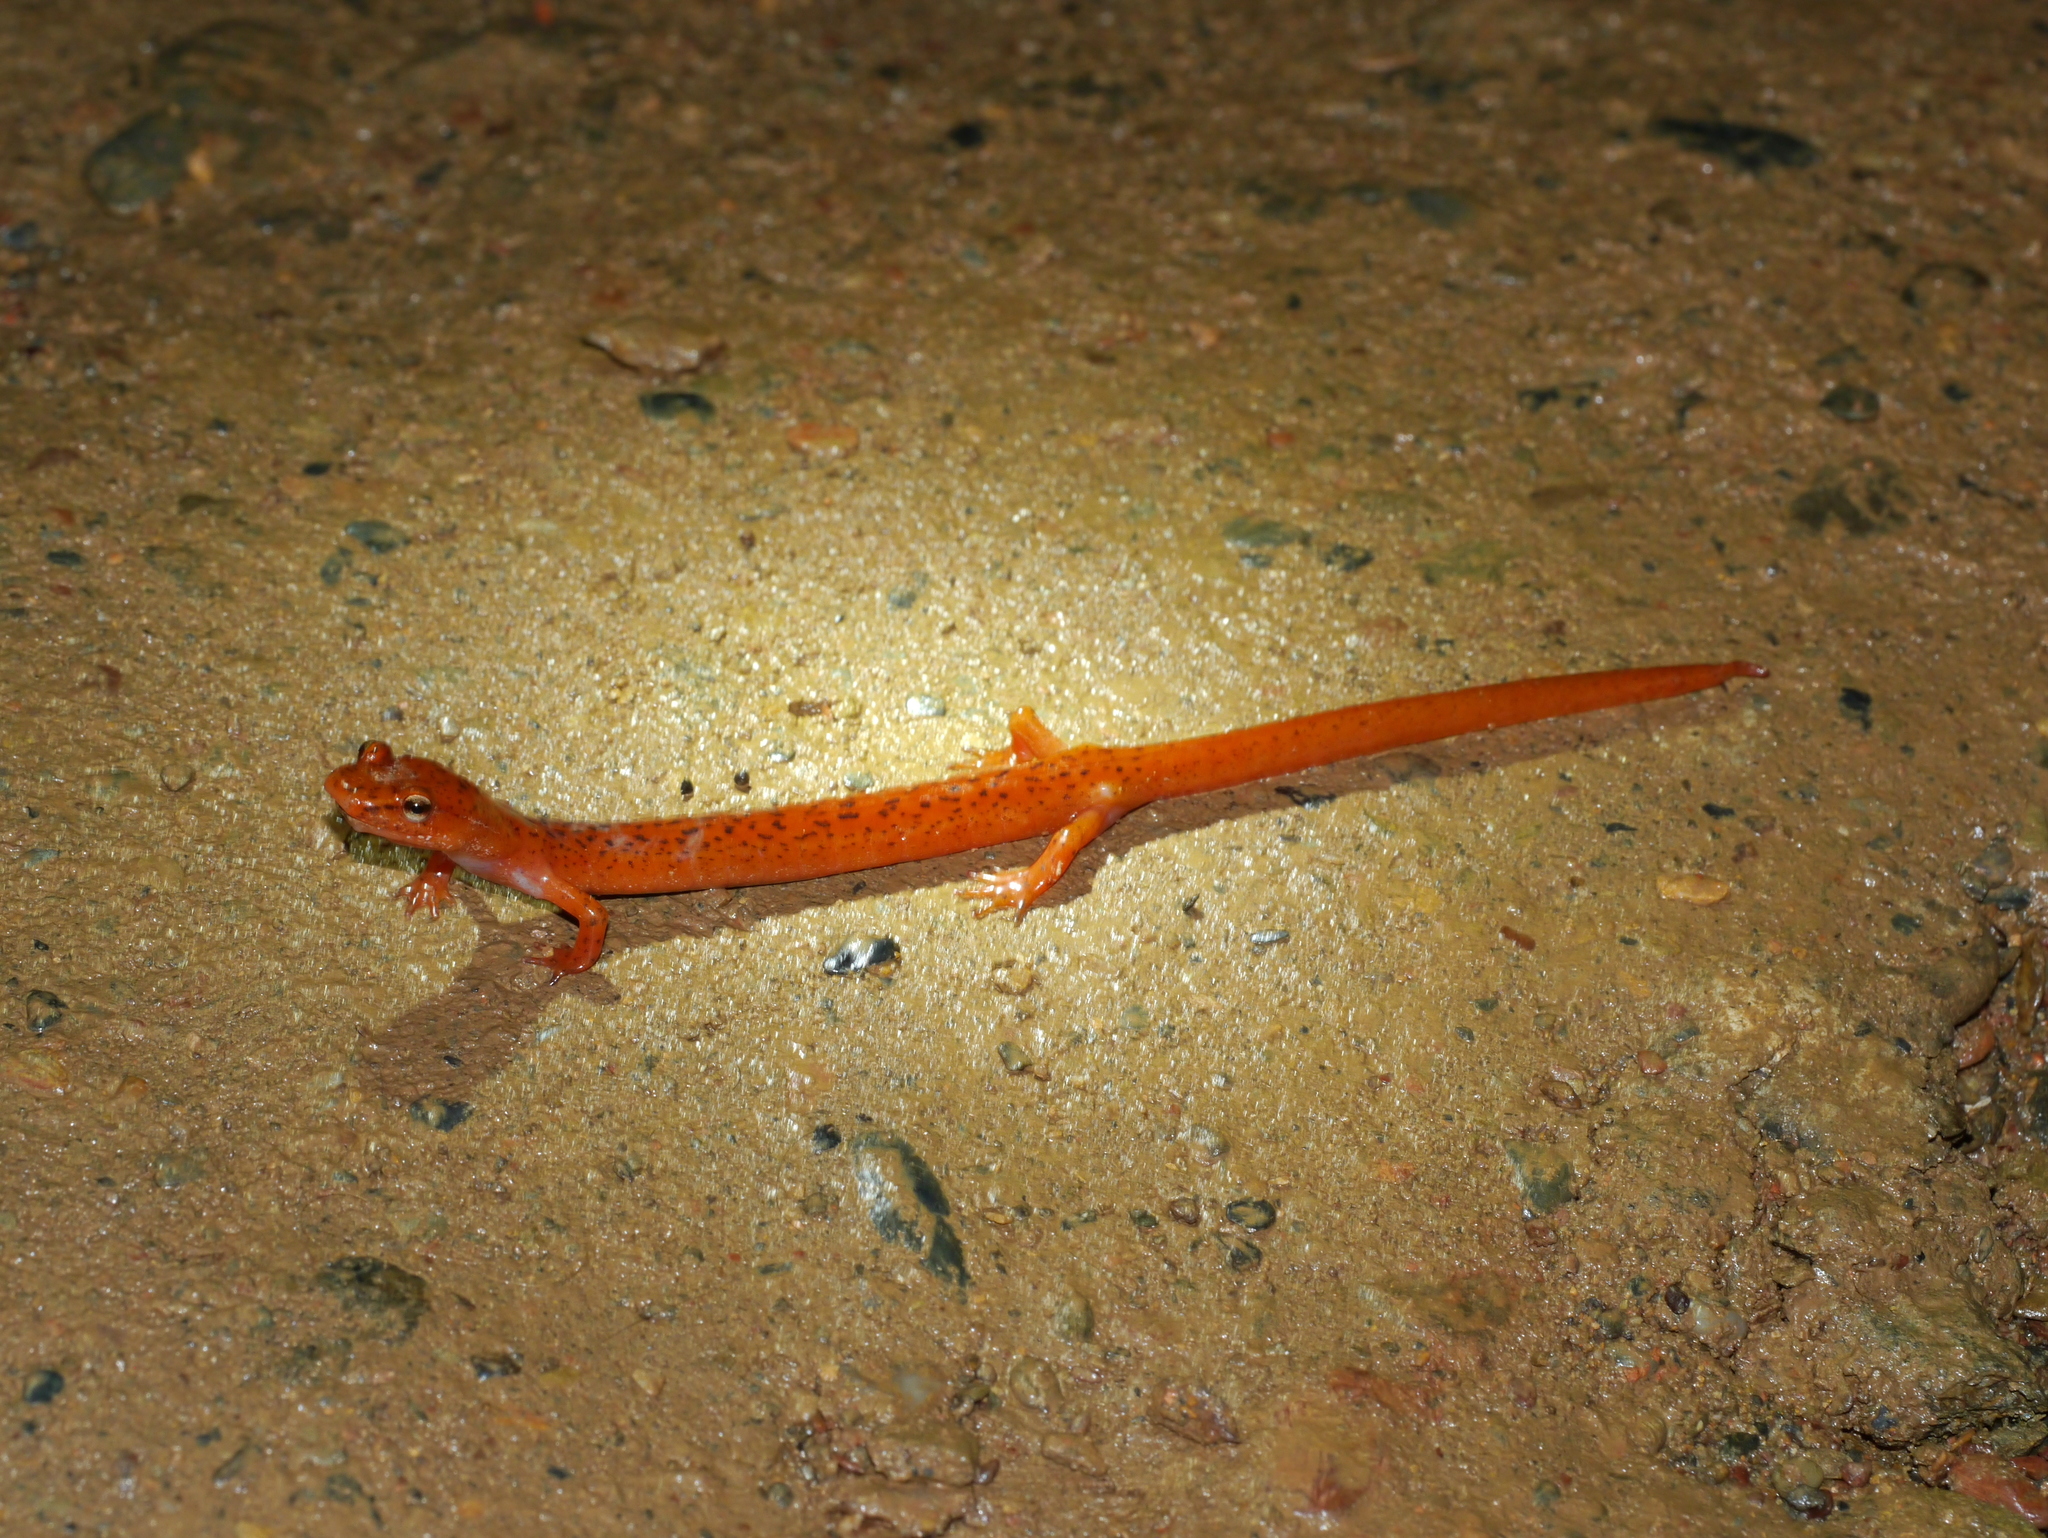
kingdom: Animalia
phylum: Chordata
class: Amphibia
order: Caudata
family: Plethodontidae
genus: Gyrinophilus
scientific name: Gyrinophilus porphyriticus
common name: Spring salamander
